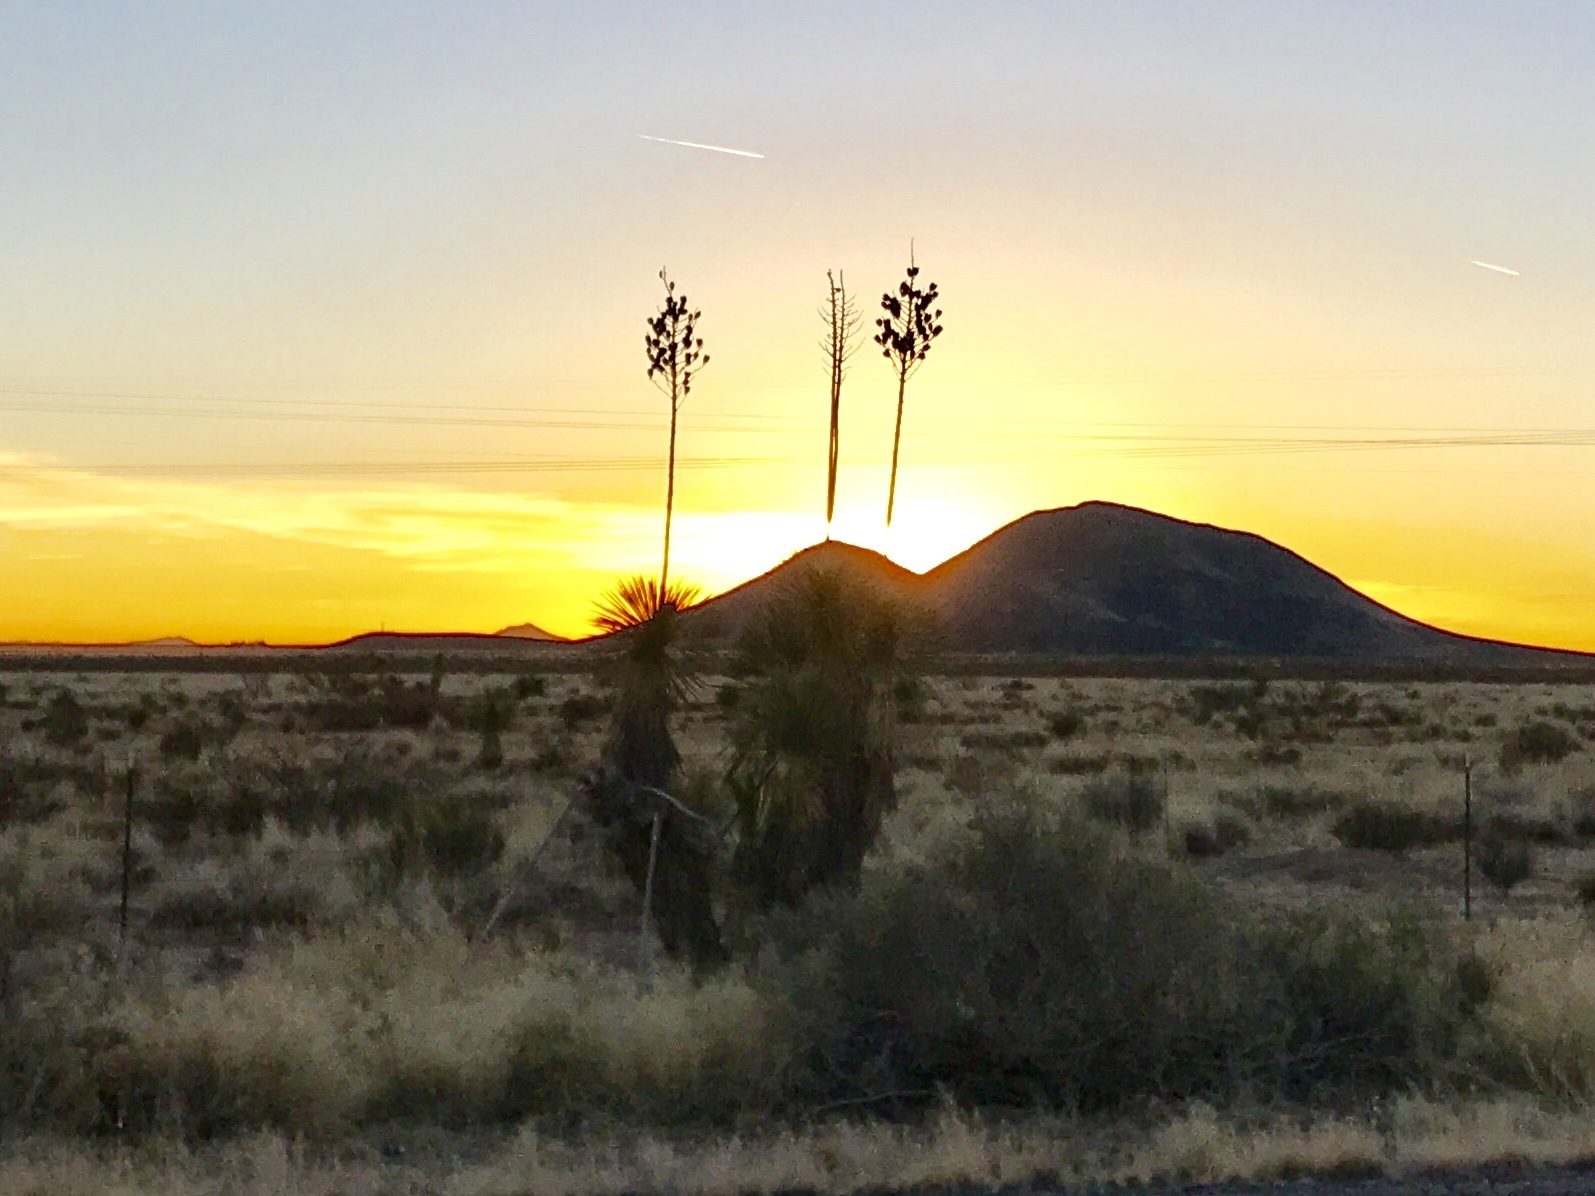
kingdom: Plantae
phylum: Tracheophyta
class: Liliopsida
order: Asparagales
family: Asparagaceae
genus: Yucca
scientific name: Yucca elata
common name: Palmella
